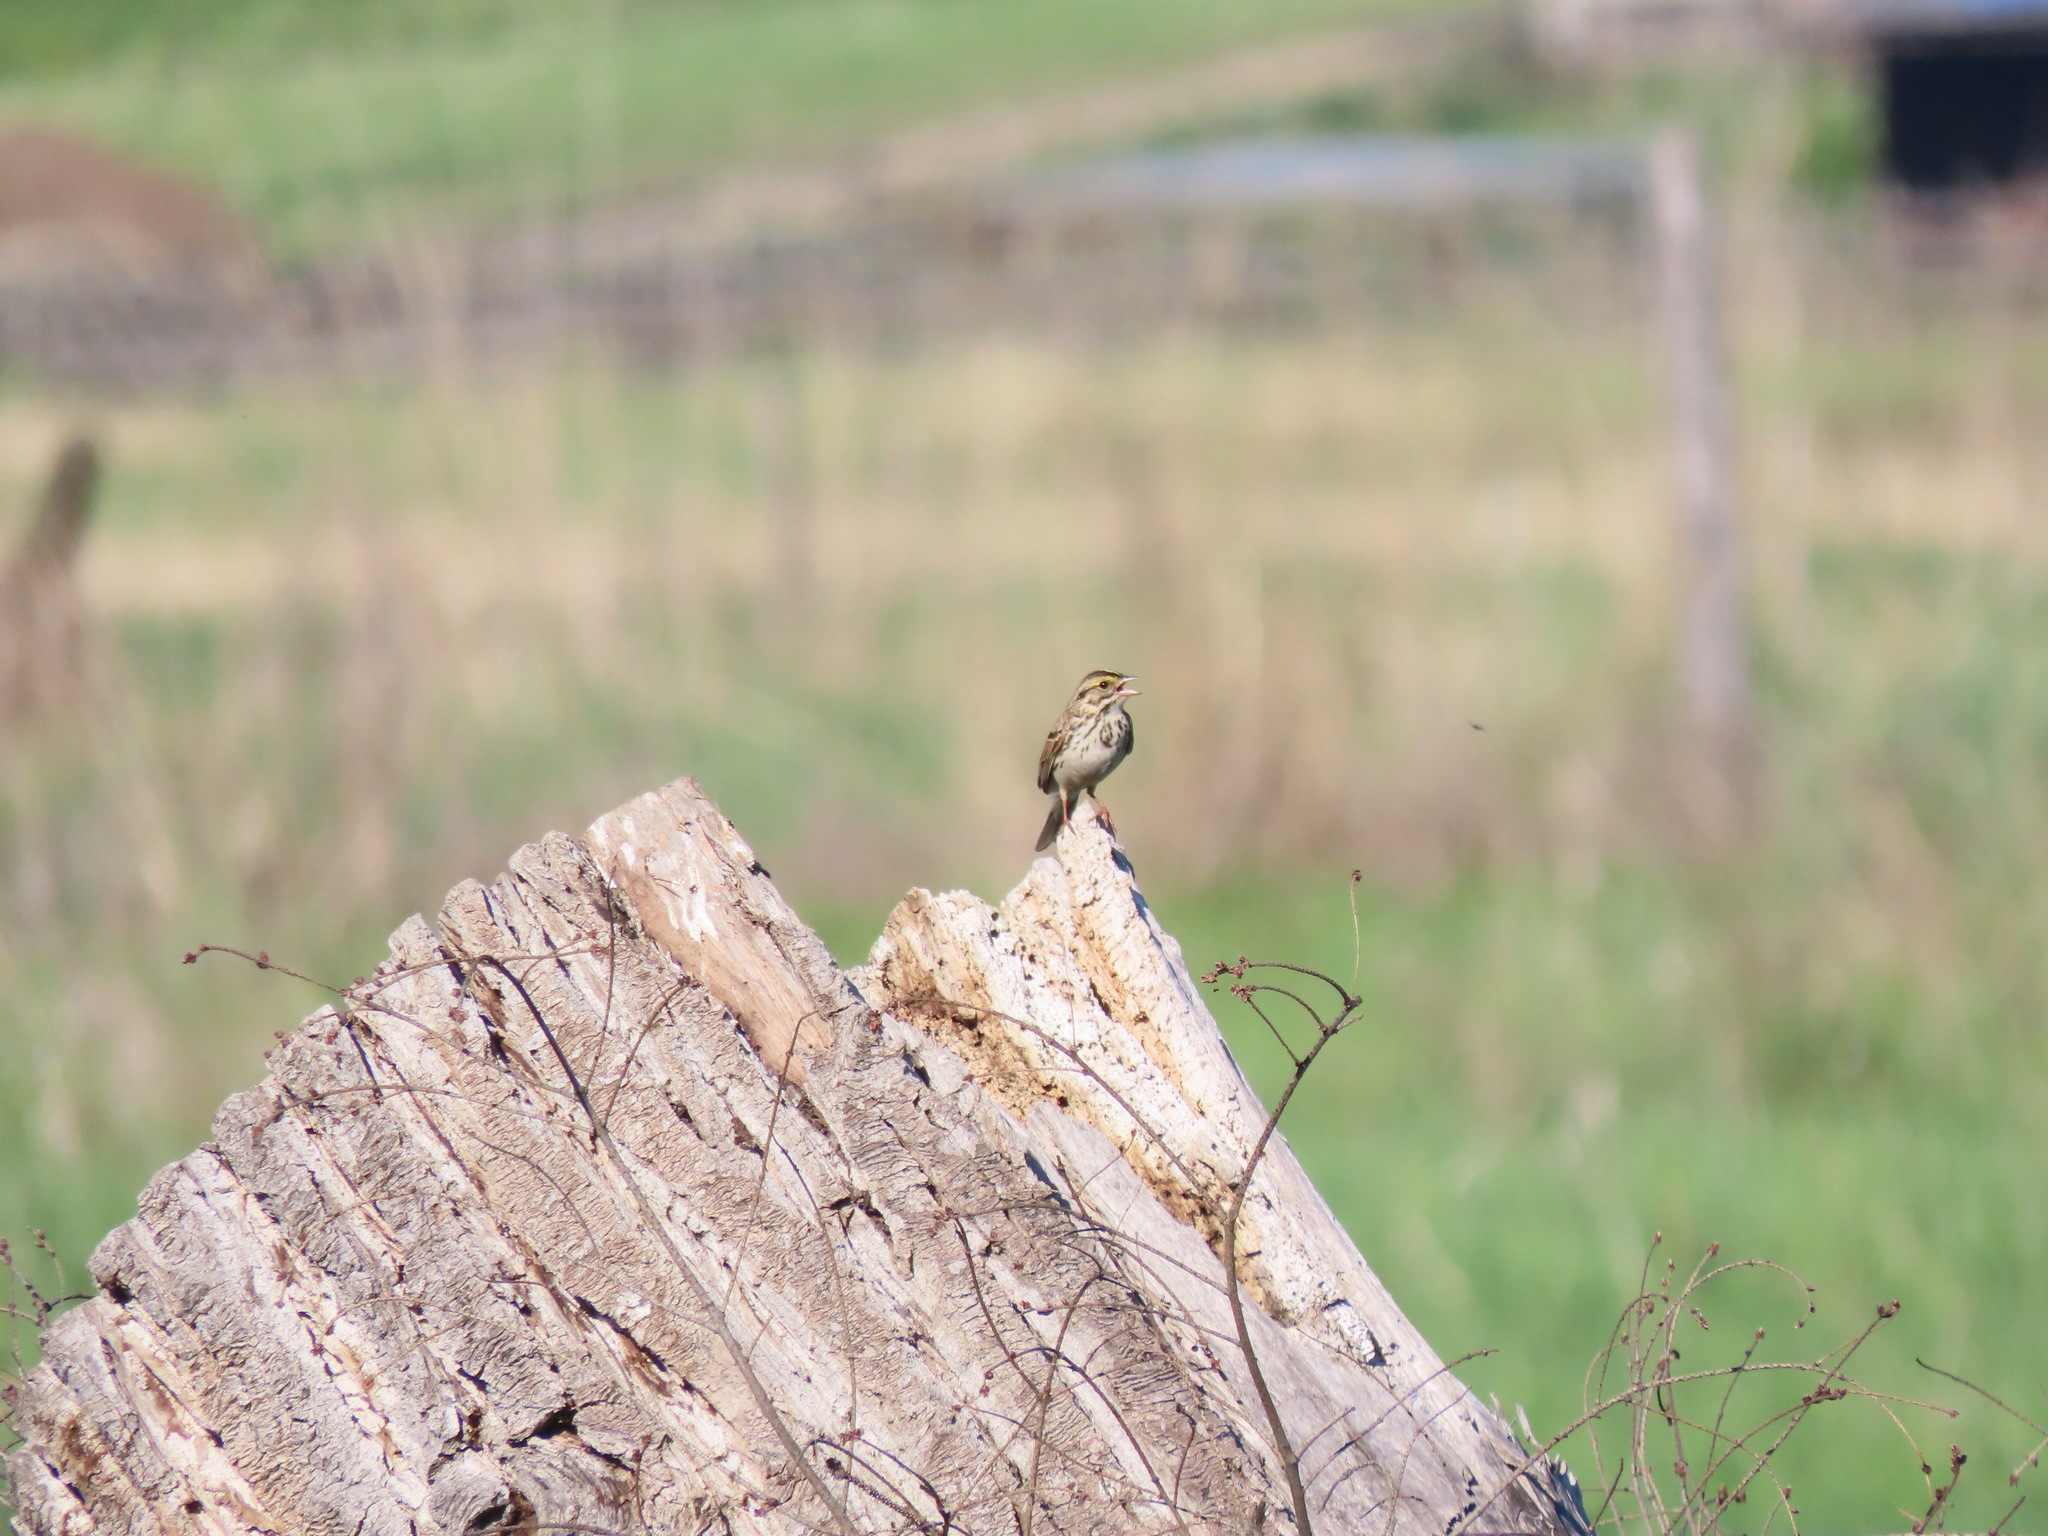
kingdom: Animalia
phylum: Chordata
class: Aves
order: Passeriformes
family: Passerellidae
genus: Passerculus
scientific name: Passerculus sandwichensis
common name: Savannah sparrow
